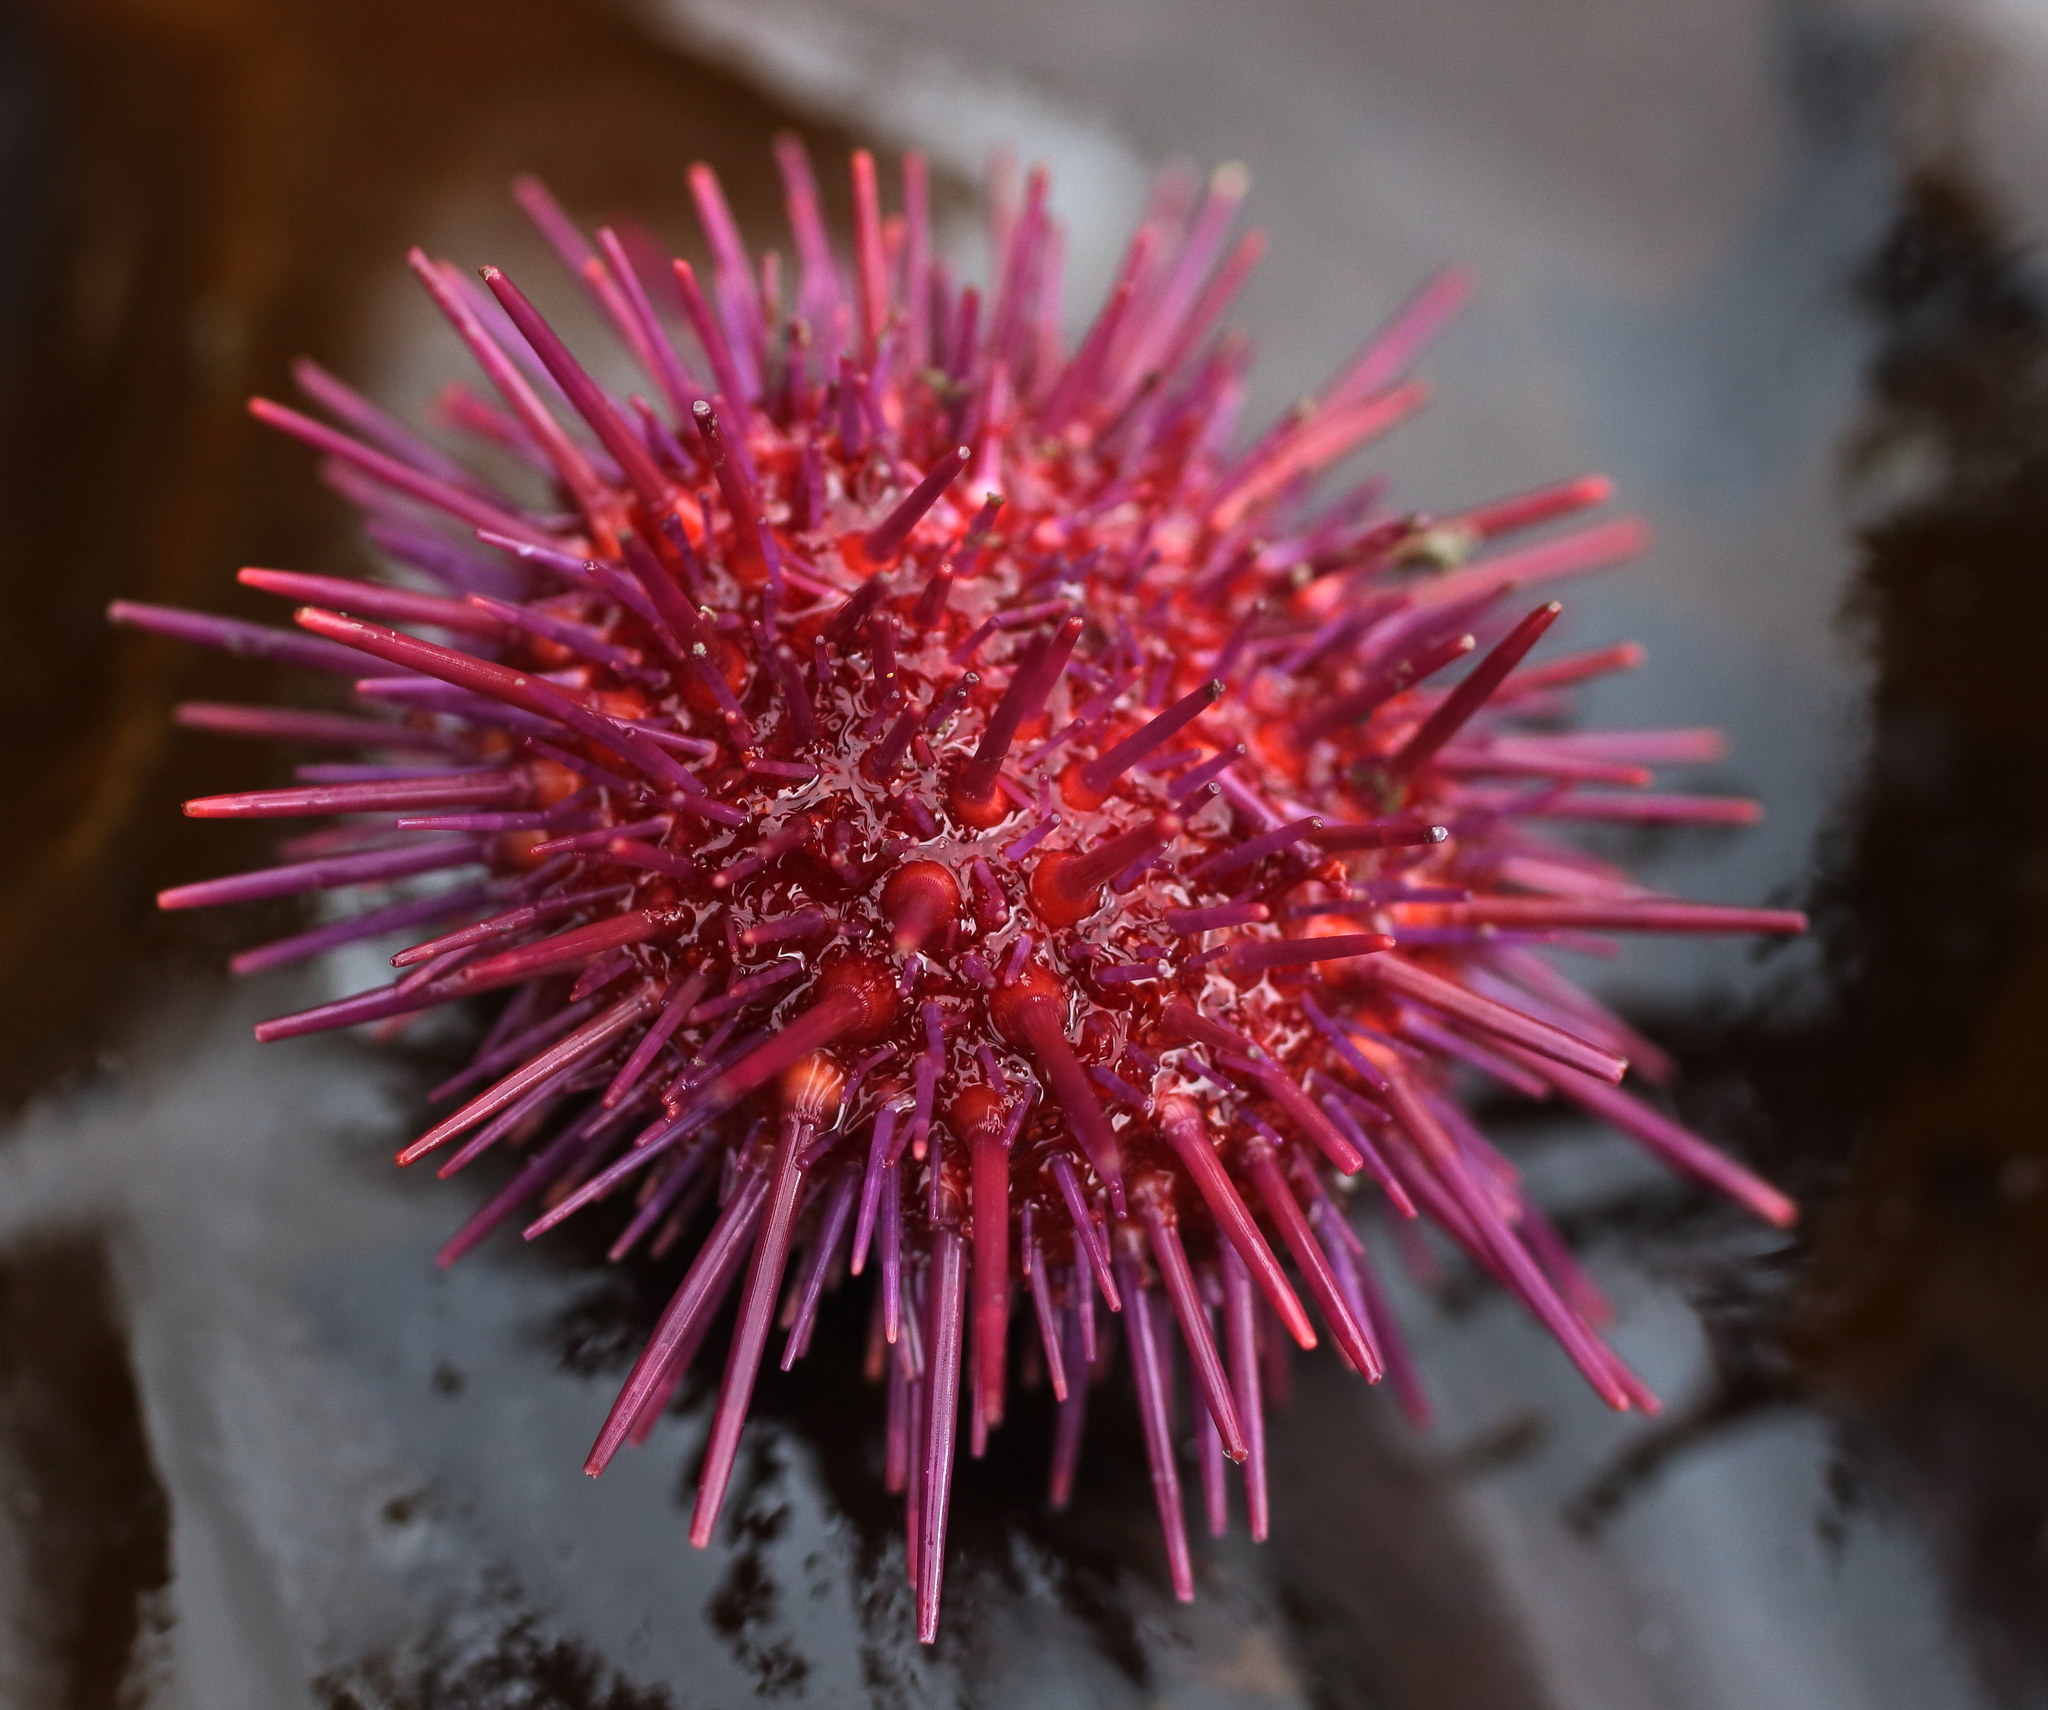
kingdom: Animalia
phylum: Echinodermata
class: Echinoidea
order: Camarodonta
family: Strongylocentrotidae
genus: Mesocentrotus
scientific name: Mesocentrotus franciscanus
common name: Red sea urchin
